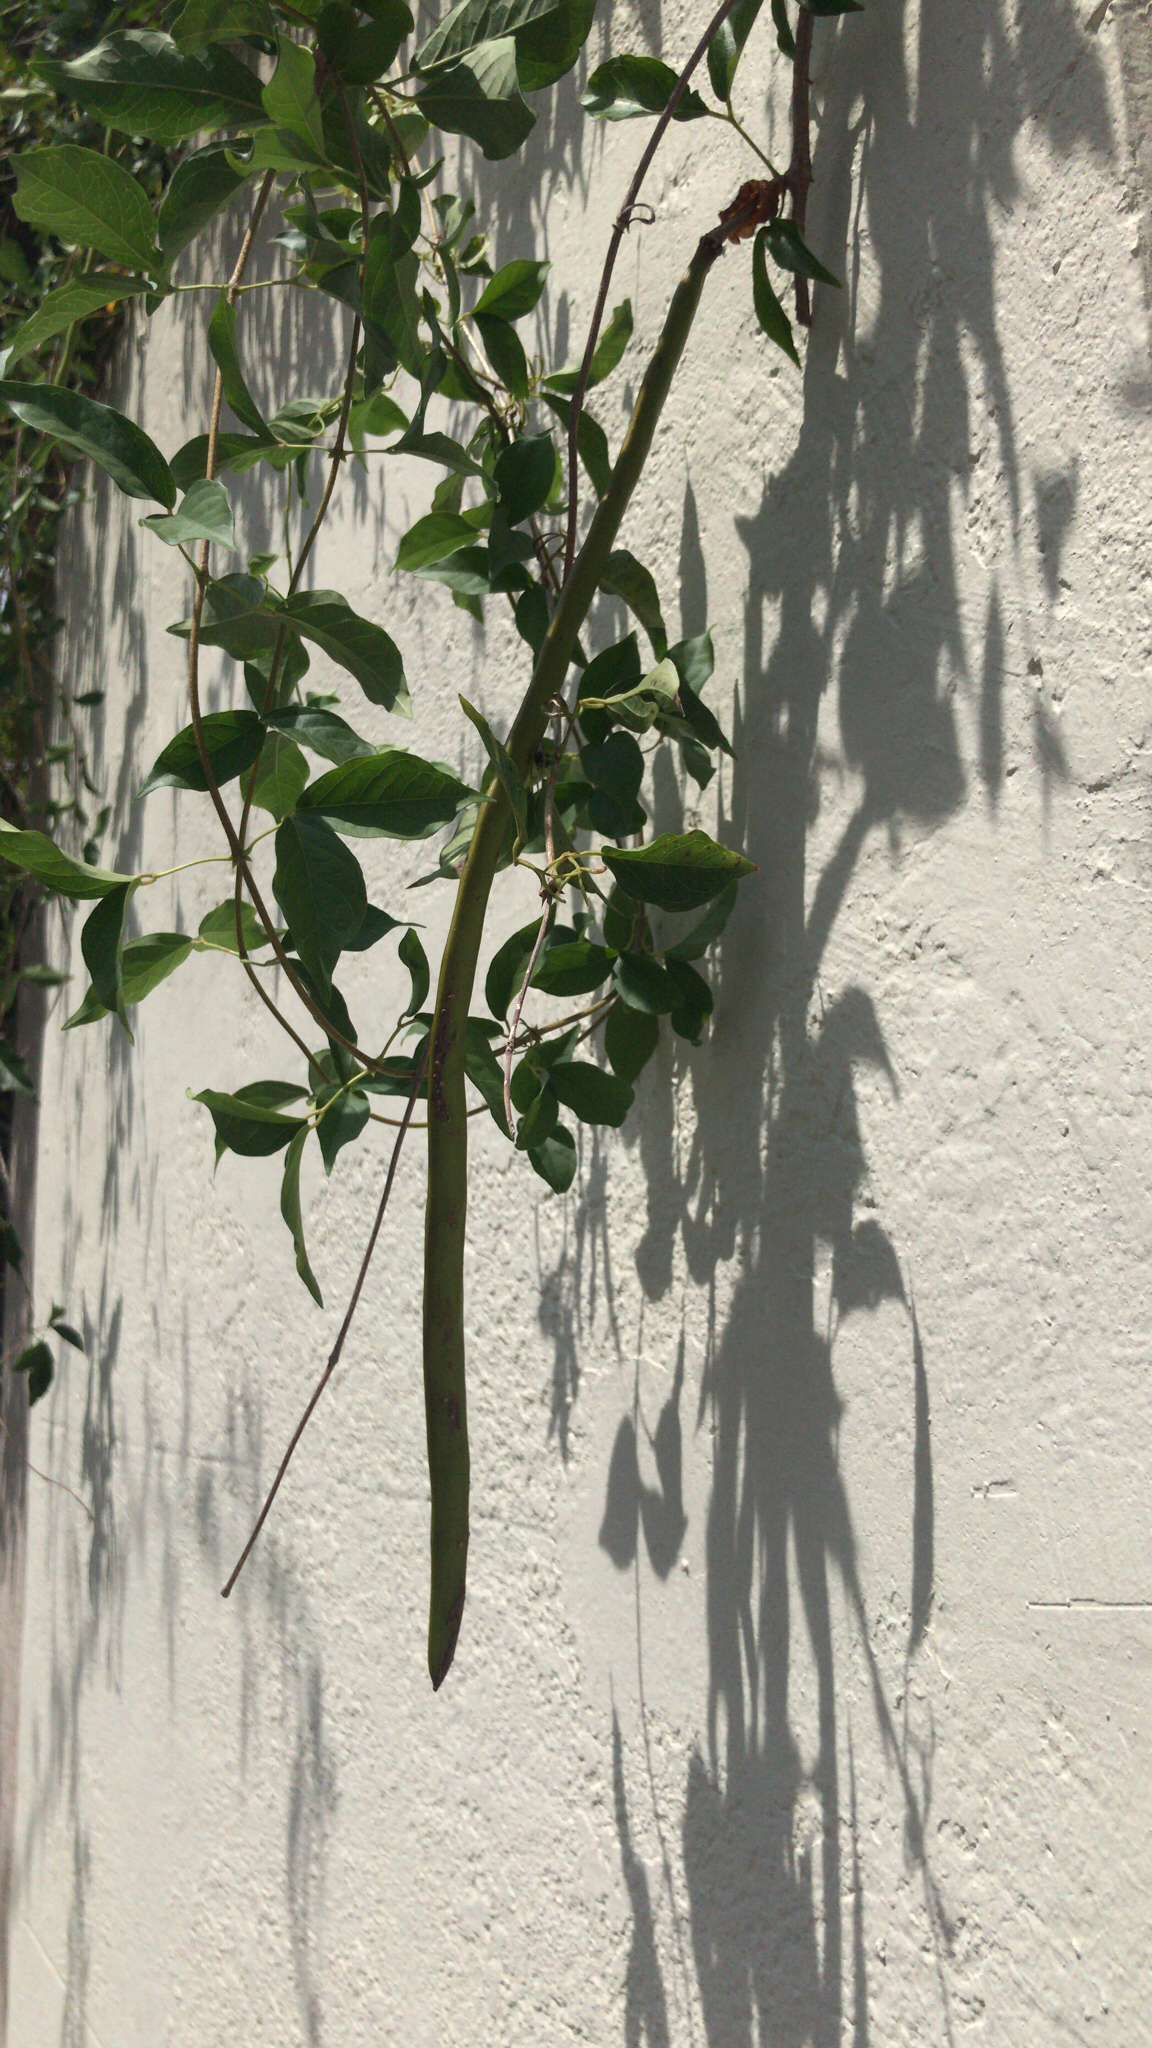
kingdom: Plantae
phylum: Tracheophyta
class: Magnoliopsida
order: Lamiales
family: Bignoniaceae
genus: Dolichandra
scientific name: Dolichandra unguis-cati
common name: Catclaw vine
